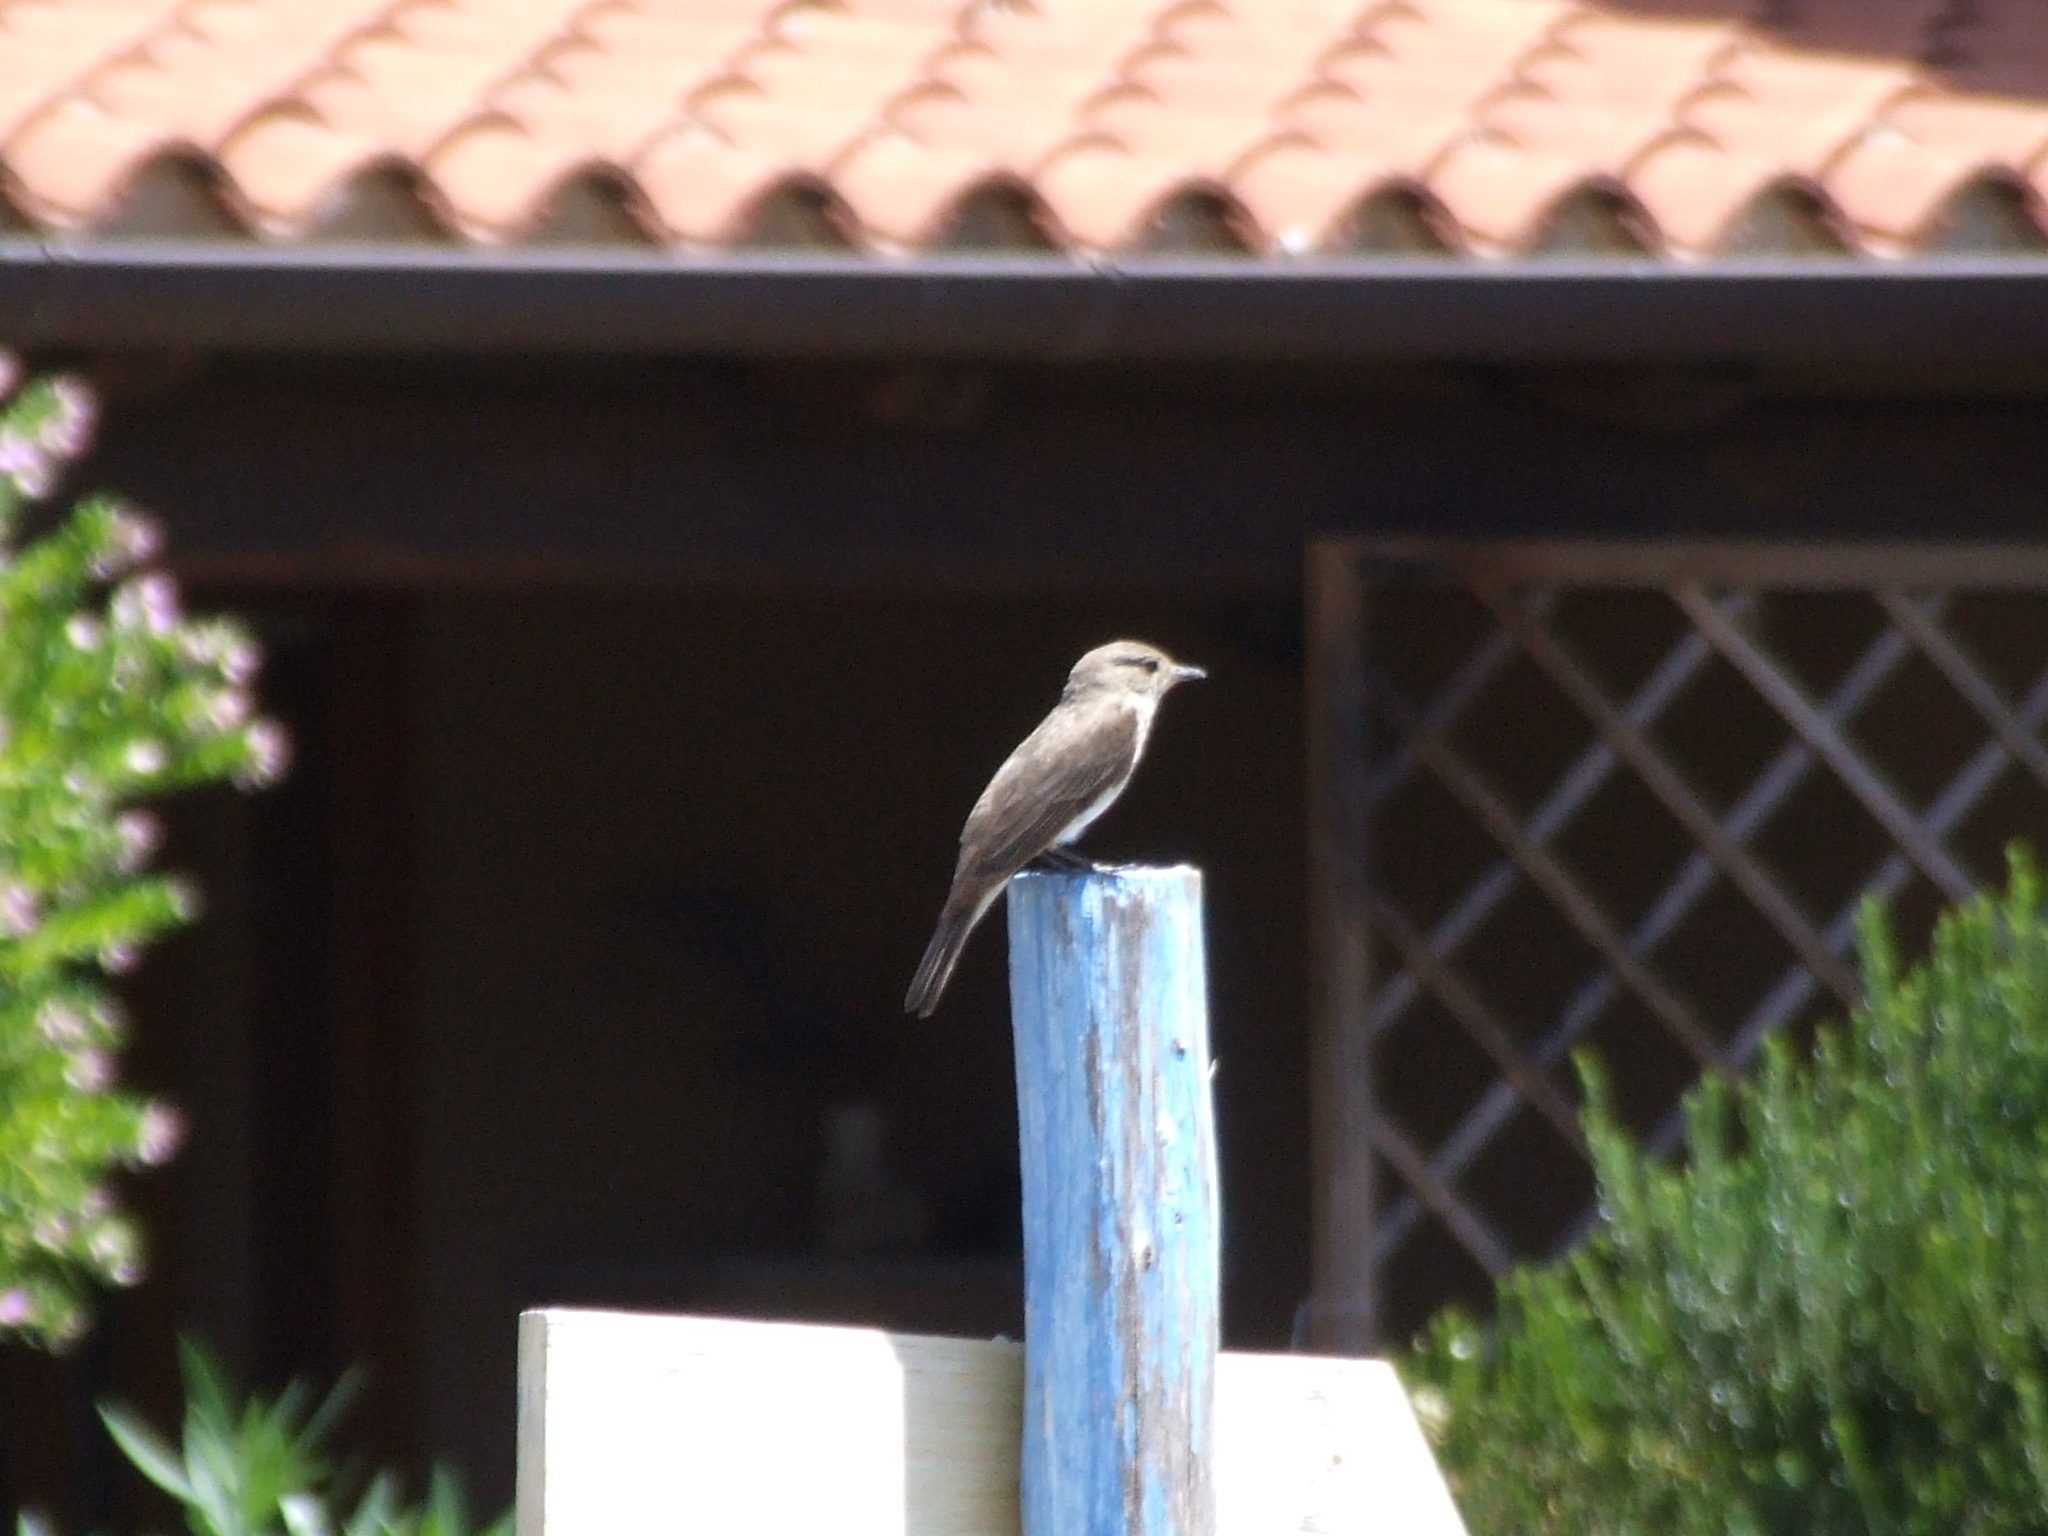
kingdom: Animalia
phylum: Chordata
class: Aves
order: Passeriformes
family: Muscicapidae
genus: Muscicapa
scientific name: Muscicapa striata
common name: Spotted flycatcher
